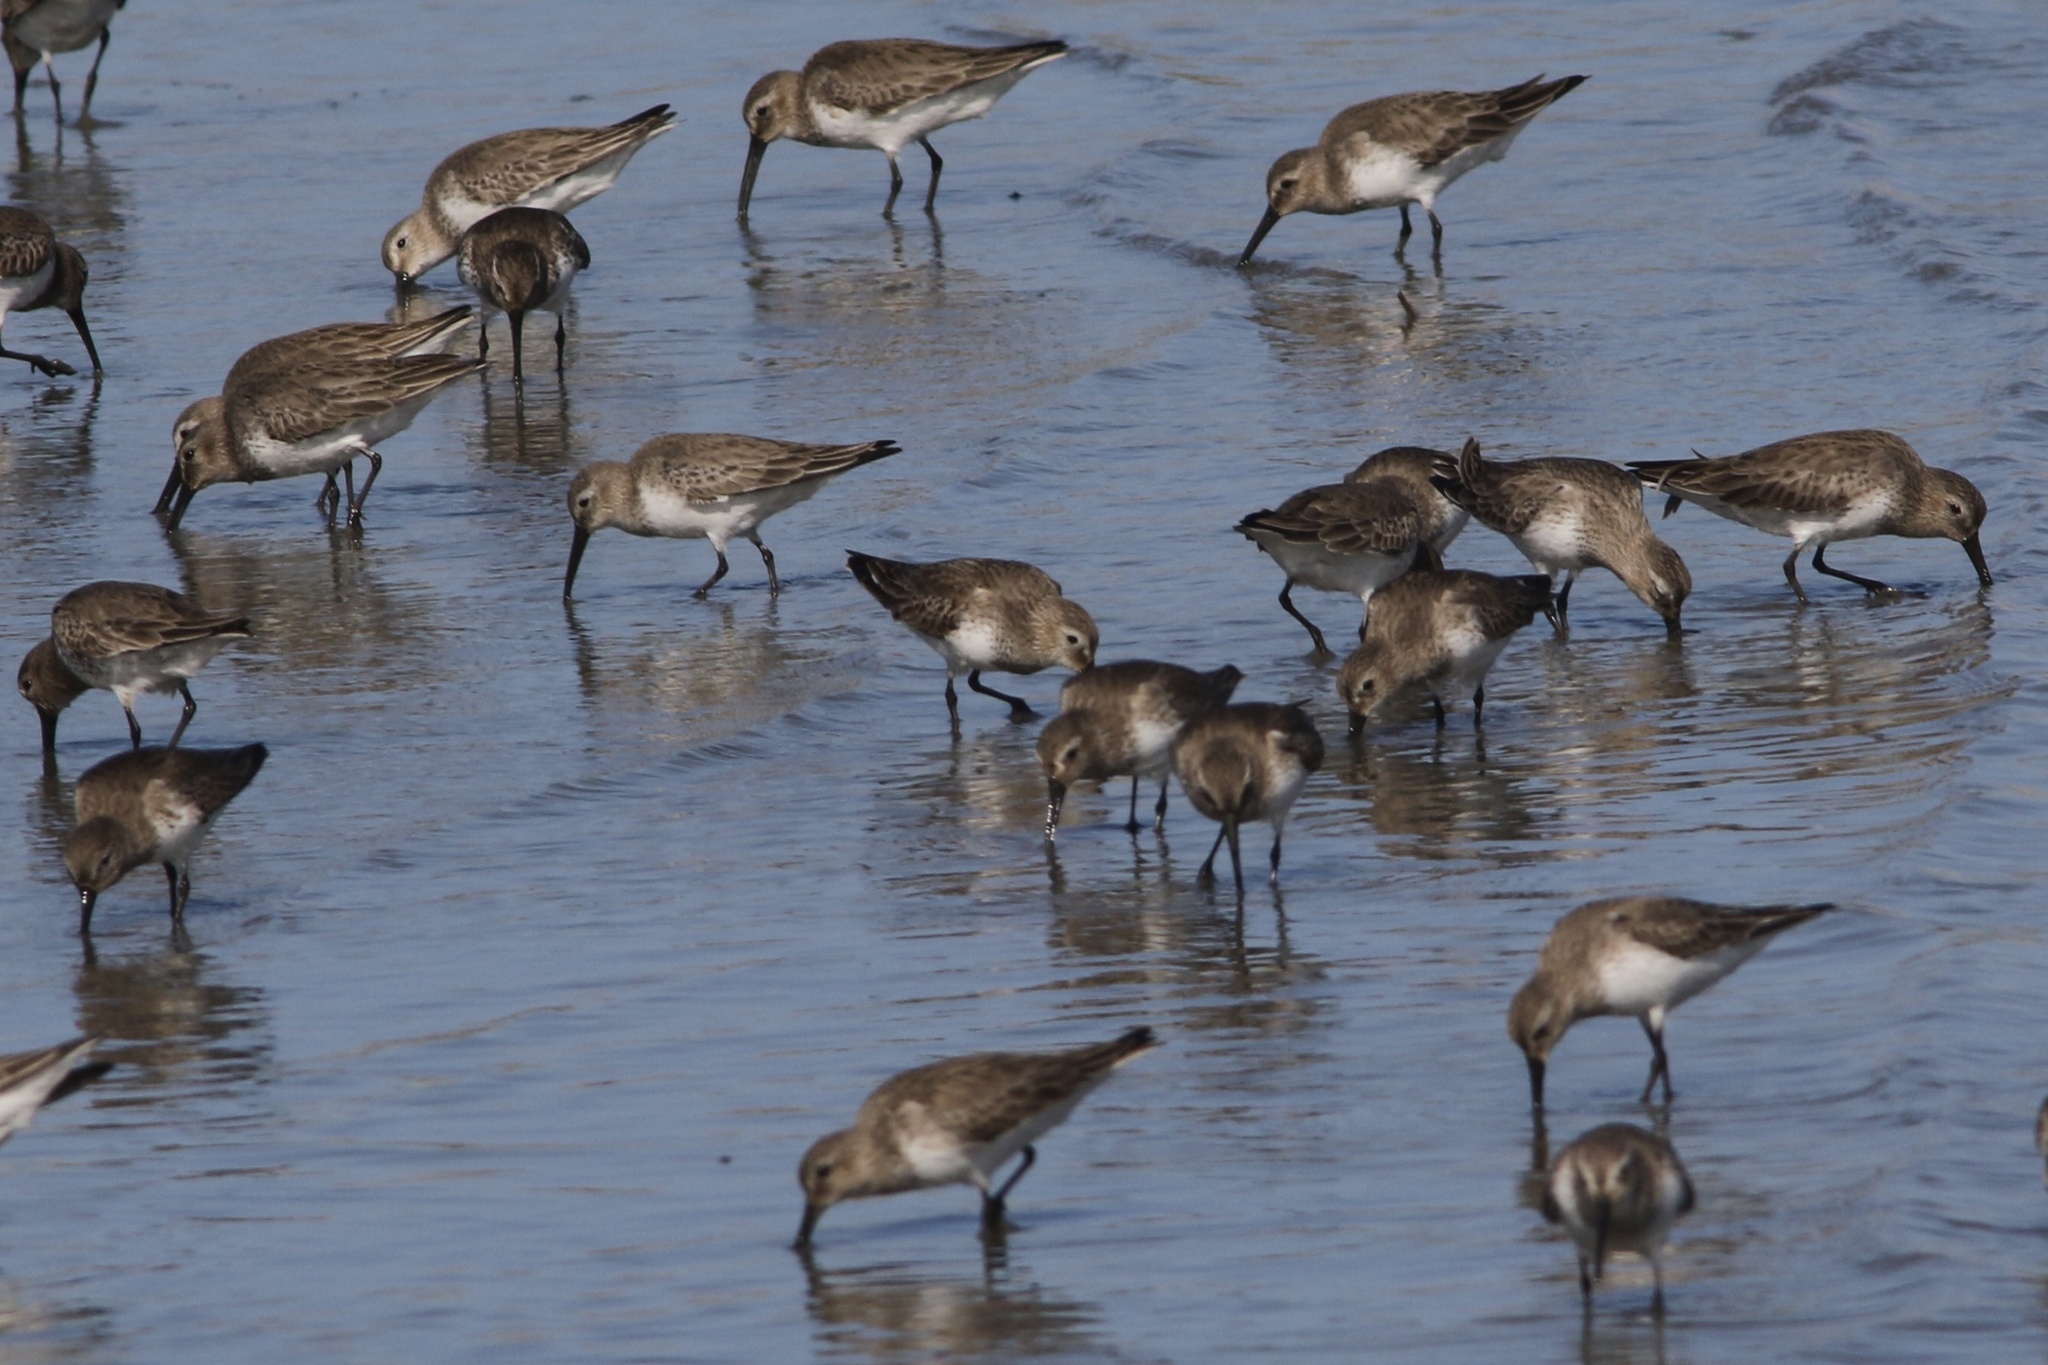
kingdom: Animalia
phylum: Chordata
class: Aves
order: Charadriiformes
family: Scolopacidae
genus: Calidris
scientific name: Calidris alpina
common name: Dunlin
